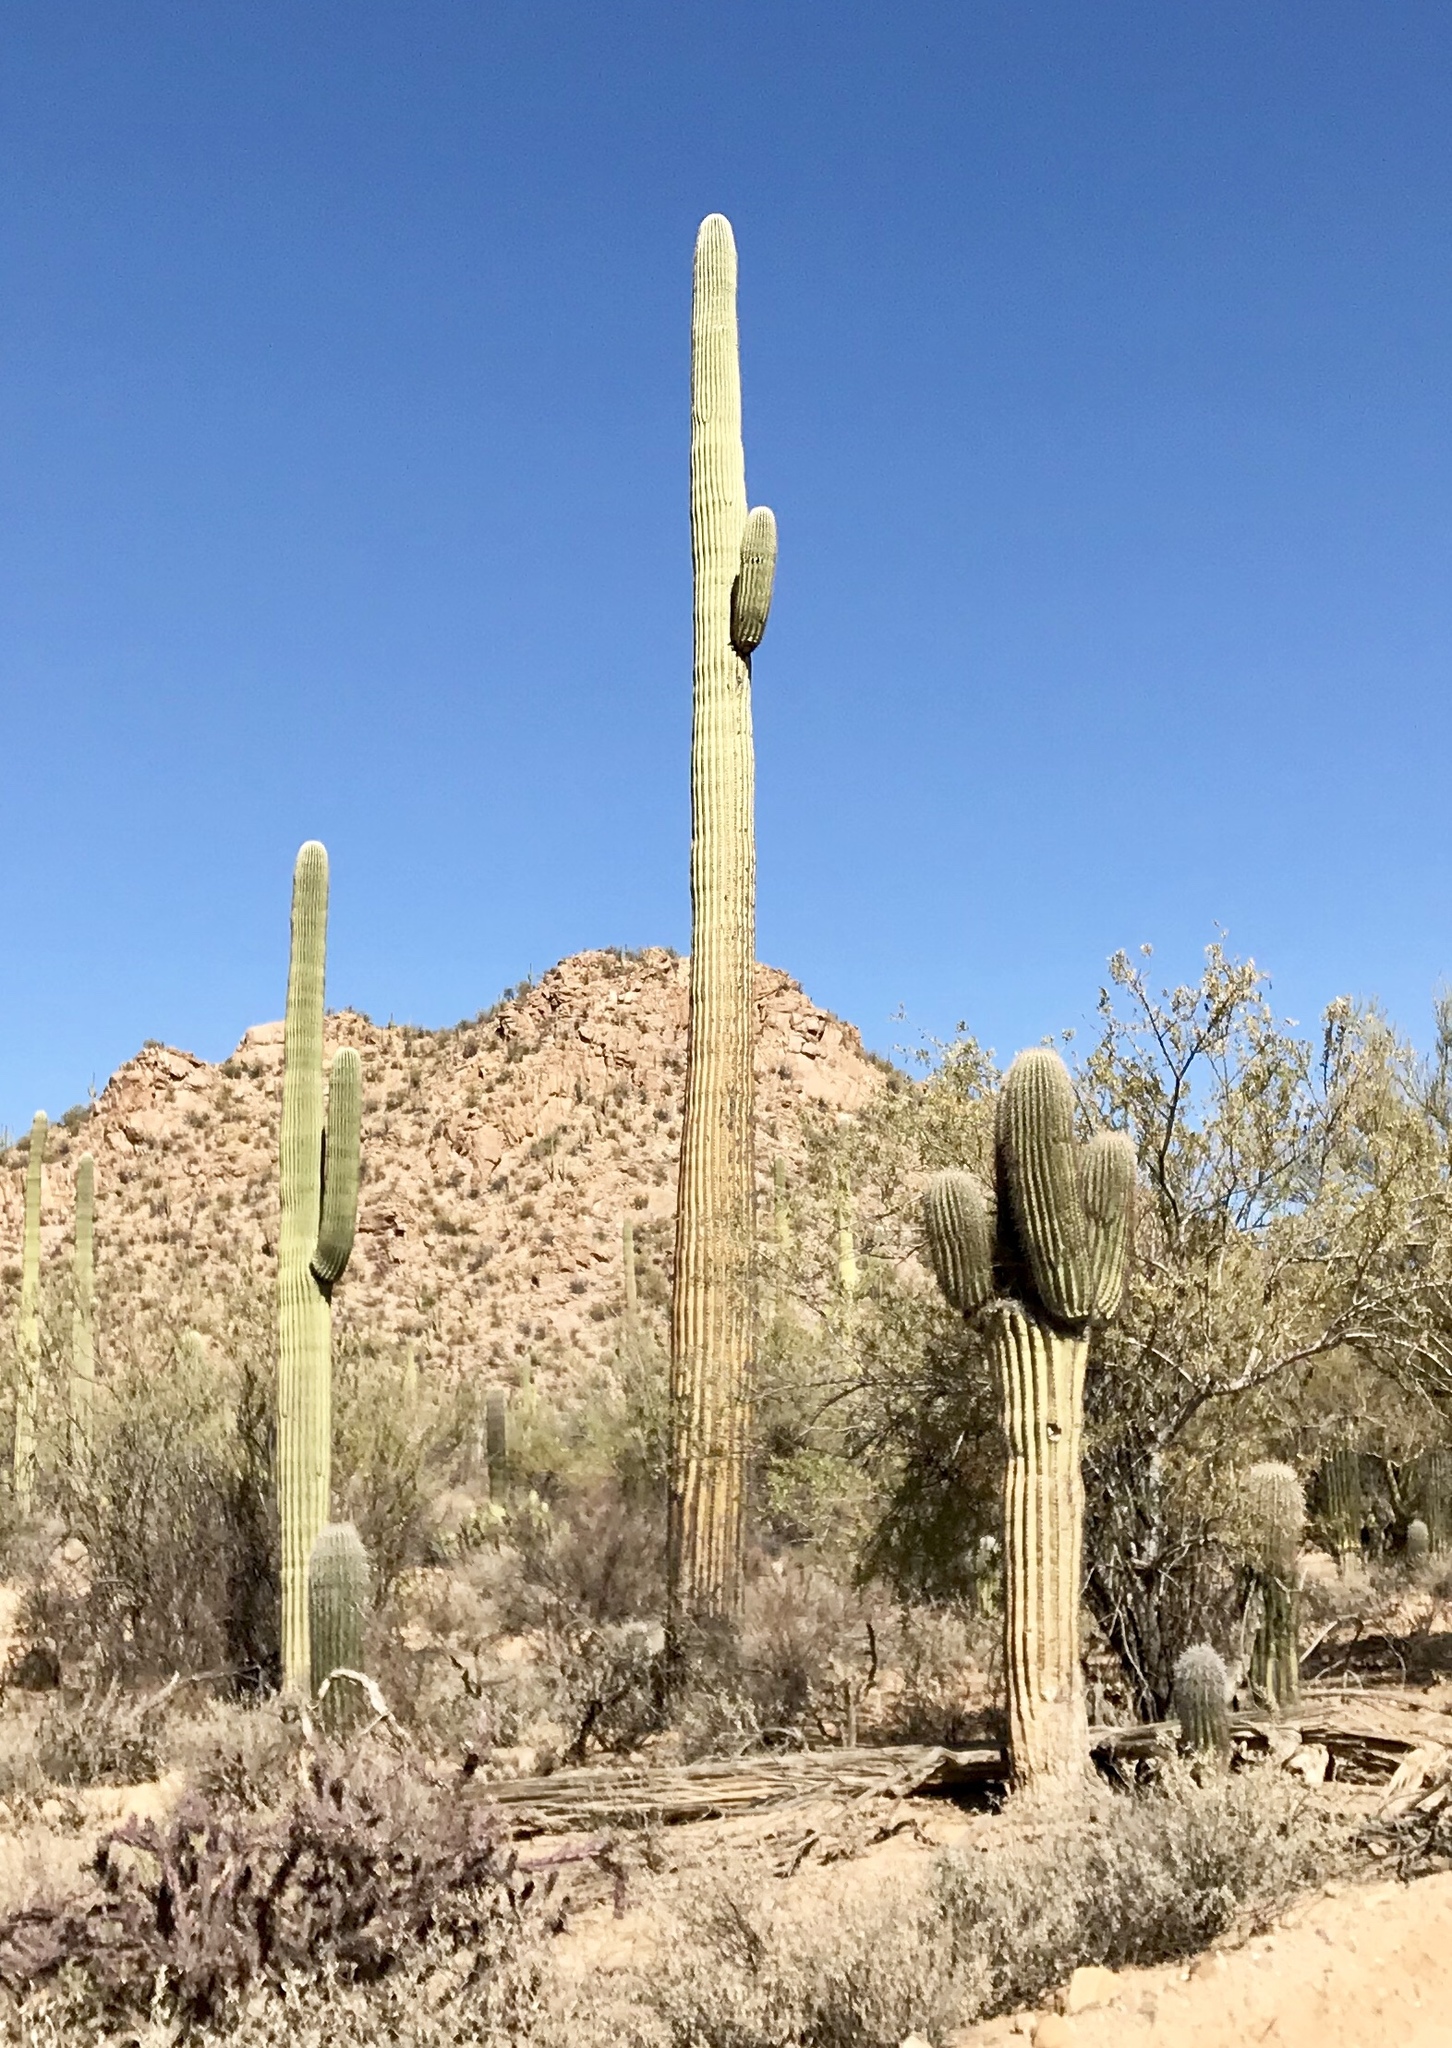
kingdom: Plantae
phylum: Tracheophyta
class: Magnoliopsida
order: Caryophyllales
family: Cactaceae
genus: Carnegiea
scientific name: Carnegiea gigantea
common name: Saguaro
